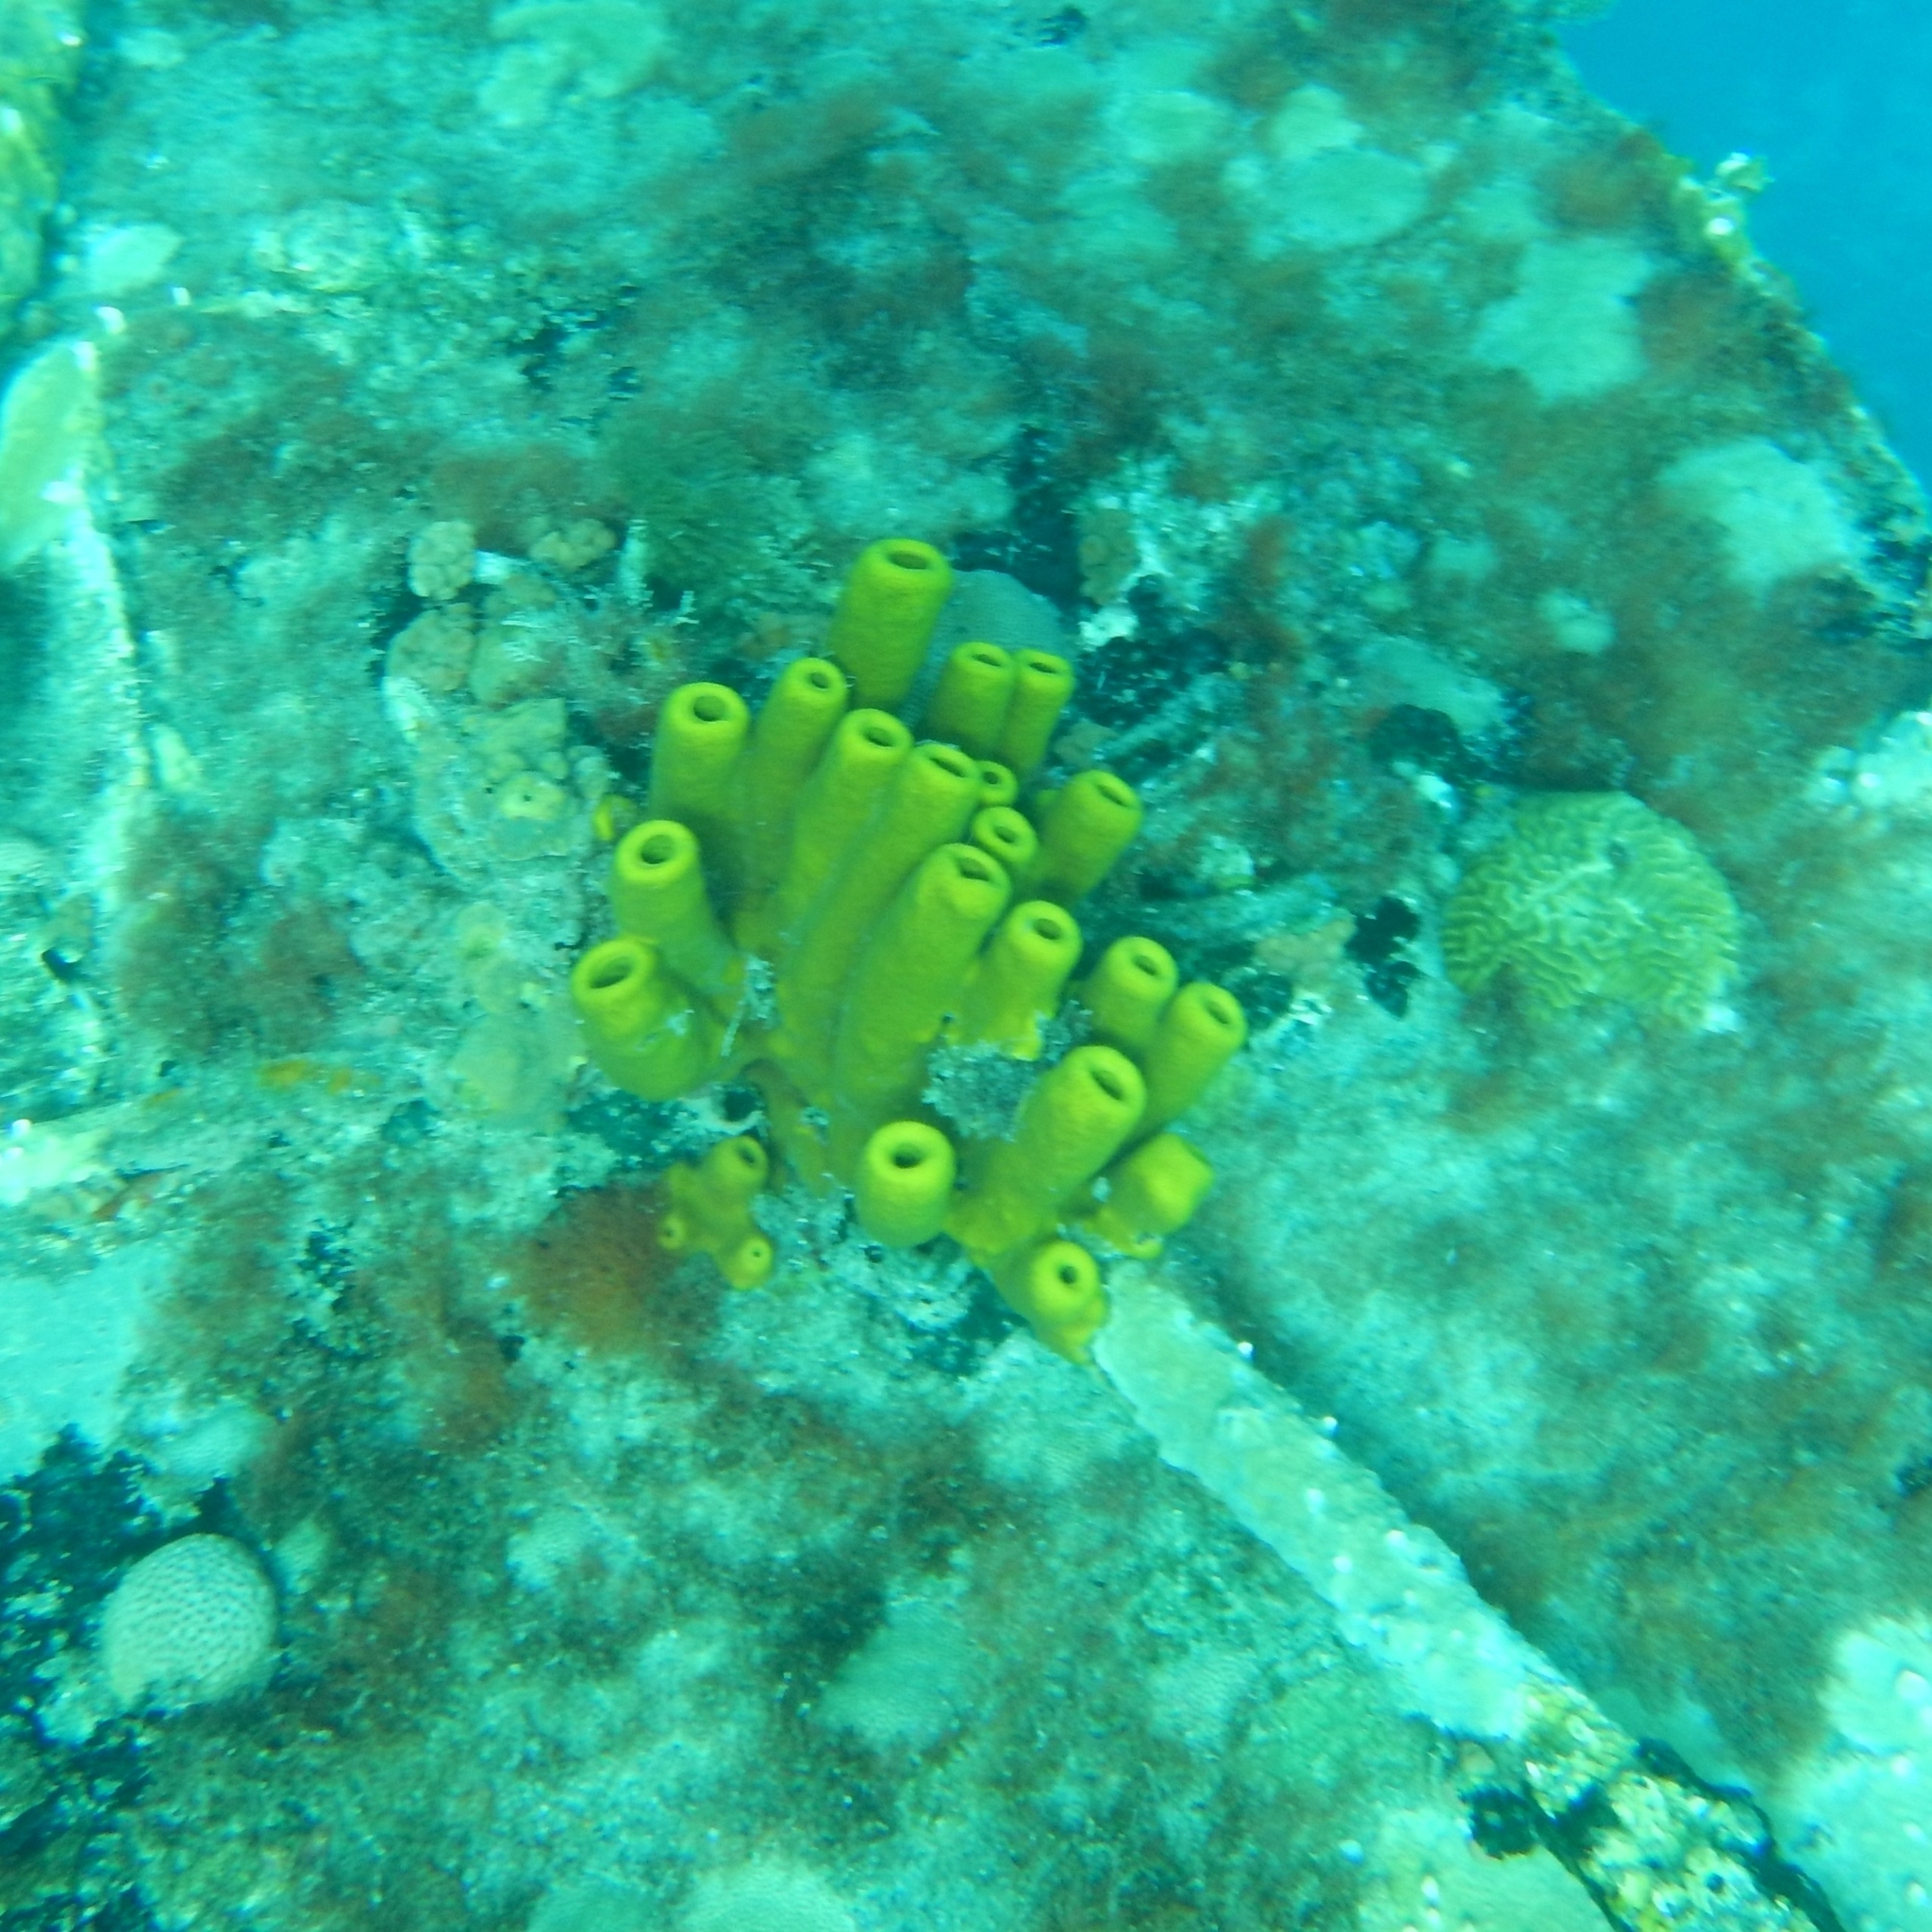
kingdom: Animalia
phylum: Porifera
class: Demospongiae
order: Verongiida
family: Aplysinidae
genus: Aplysina
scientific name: Aplysina fistularis
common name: Candle sponge
